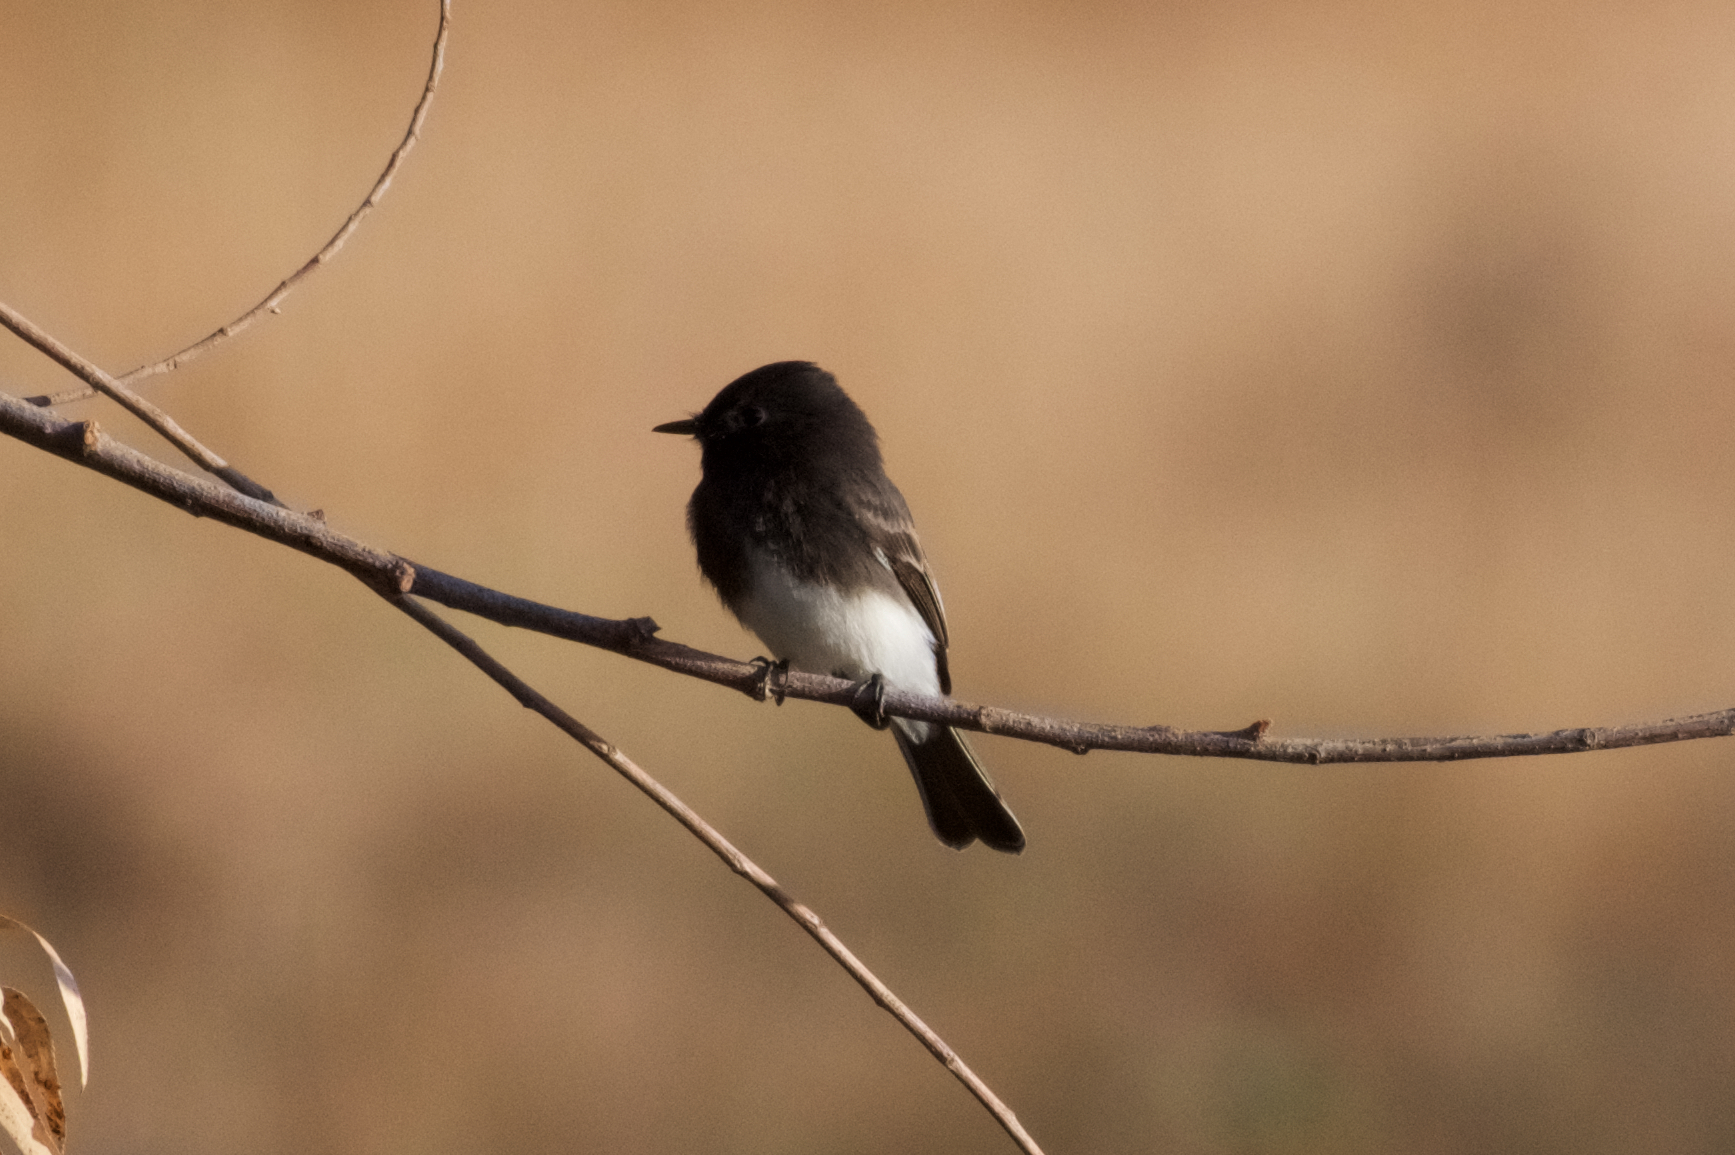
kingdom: Animalia
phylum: Chordata
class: Aves
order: Passeriformes
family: Tyrannidae
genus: Sayornis
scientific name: Sayornis nigricans
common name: Black phoebe
